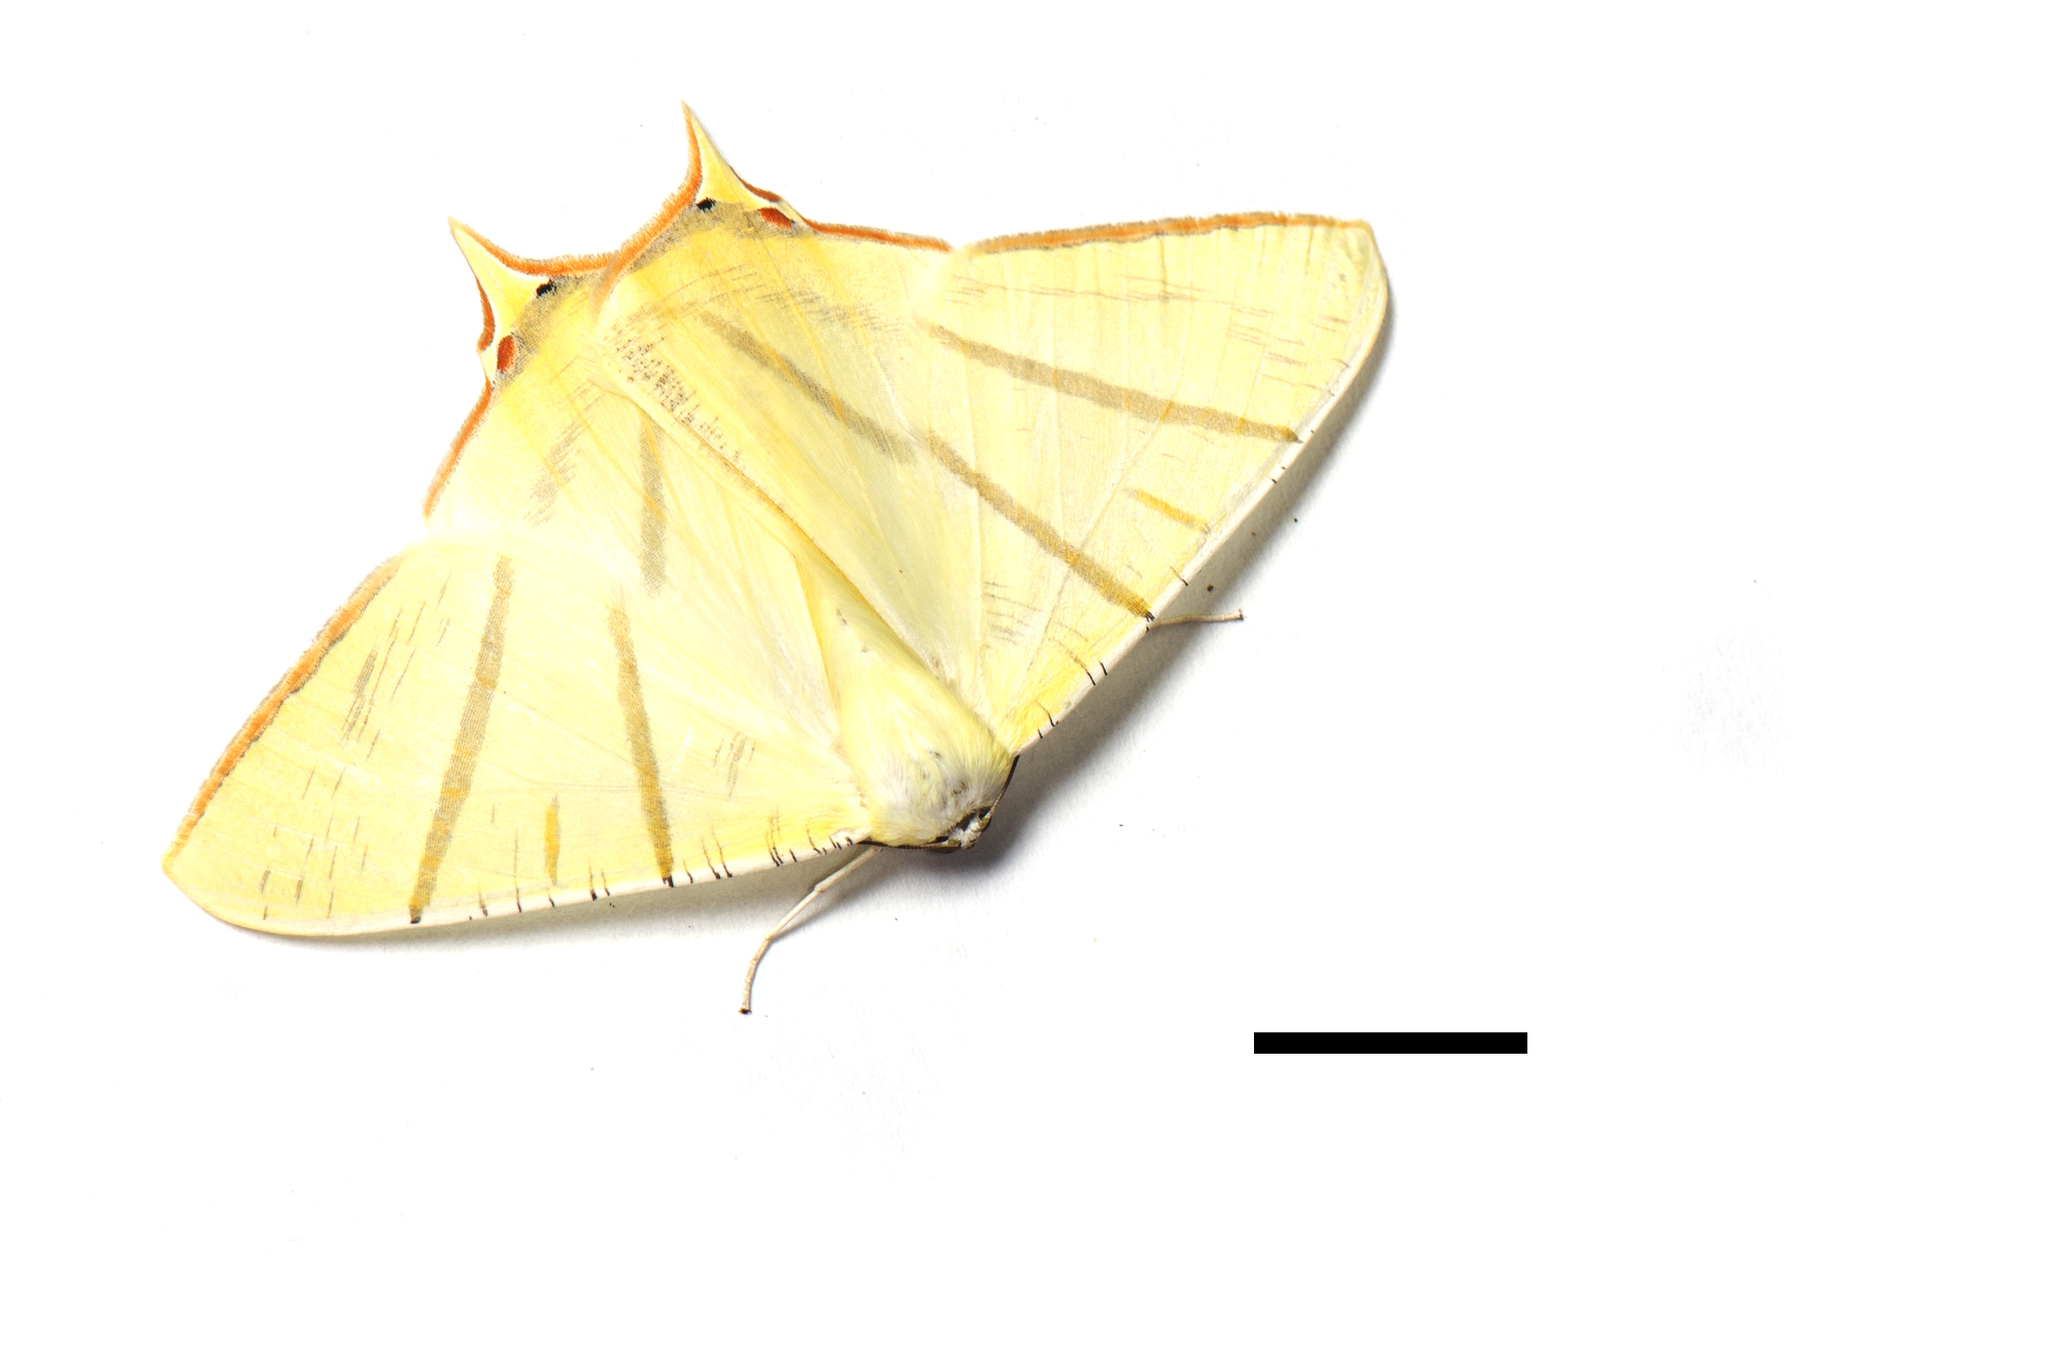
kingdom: Animalia
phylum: Arthropoda
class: Insecta
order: Lepidoptera
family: Geometridae
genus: Ourapteryx
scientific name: Ourapteryx sciticaudaria
